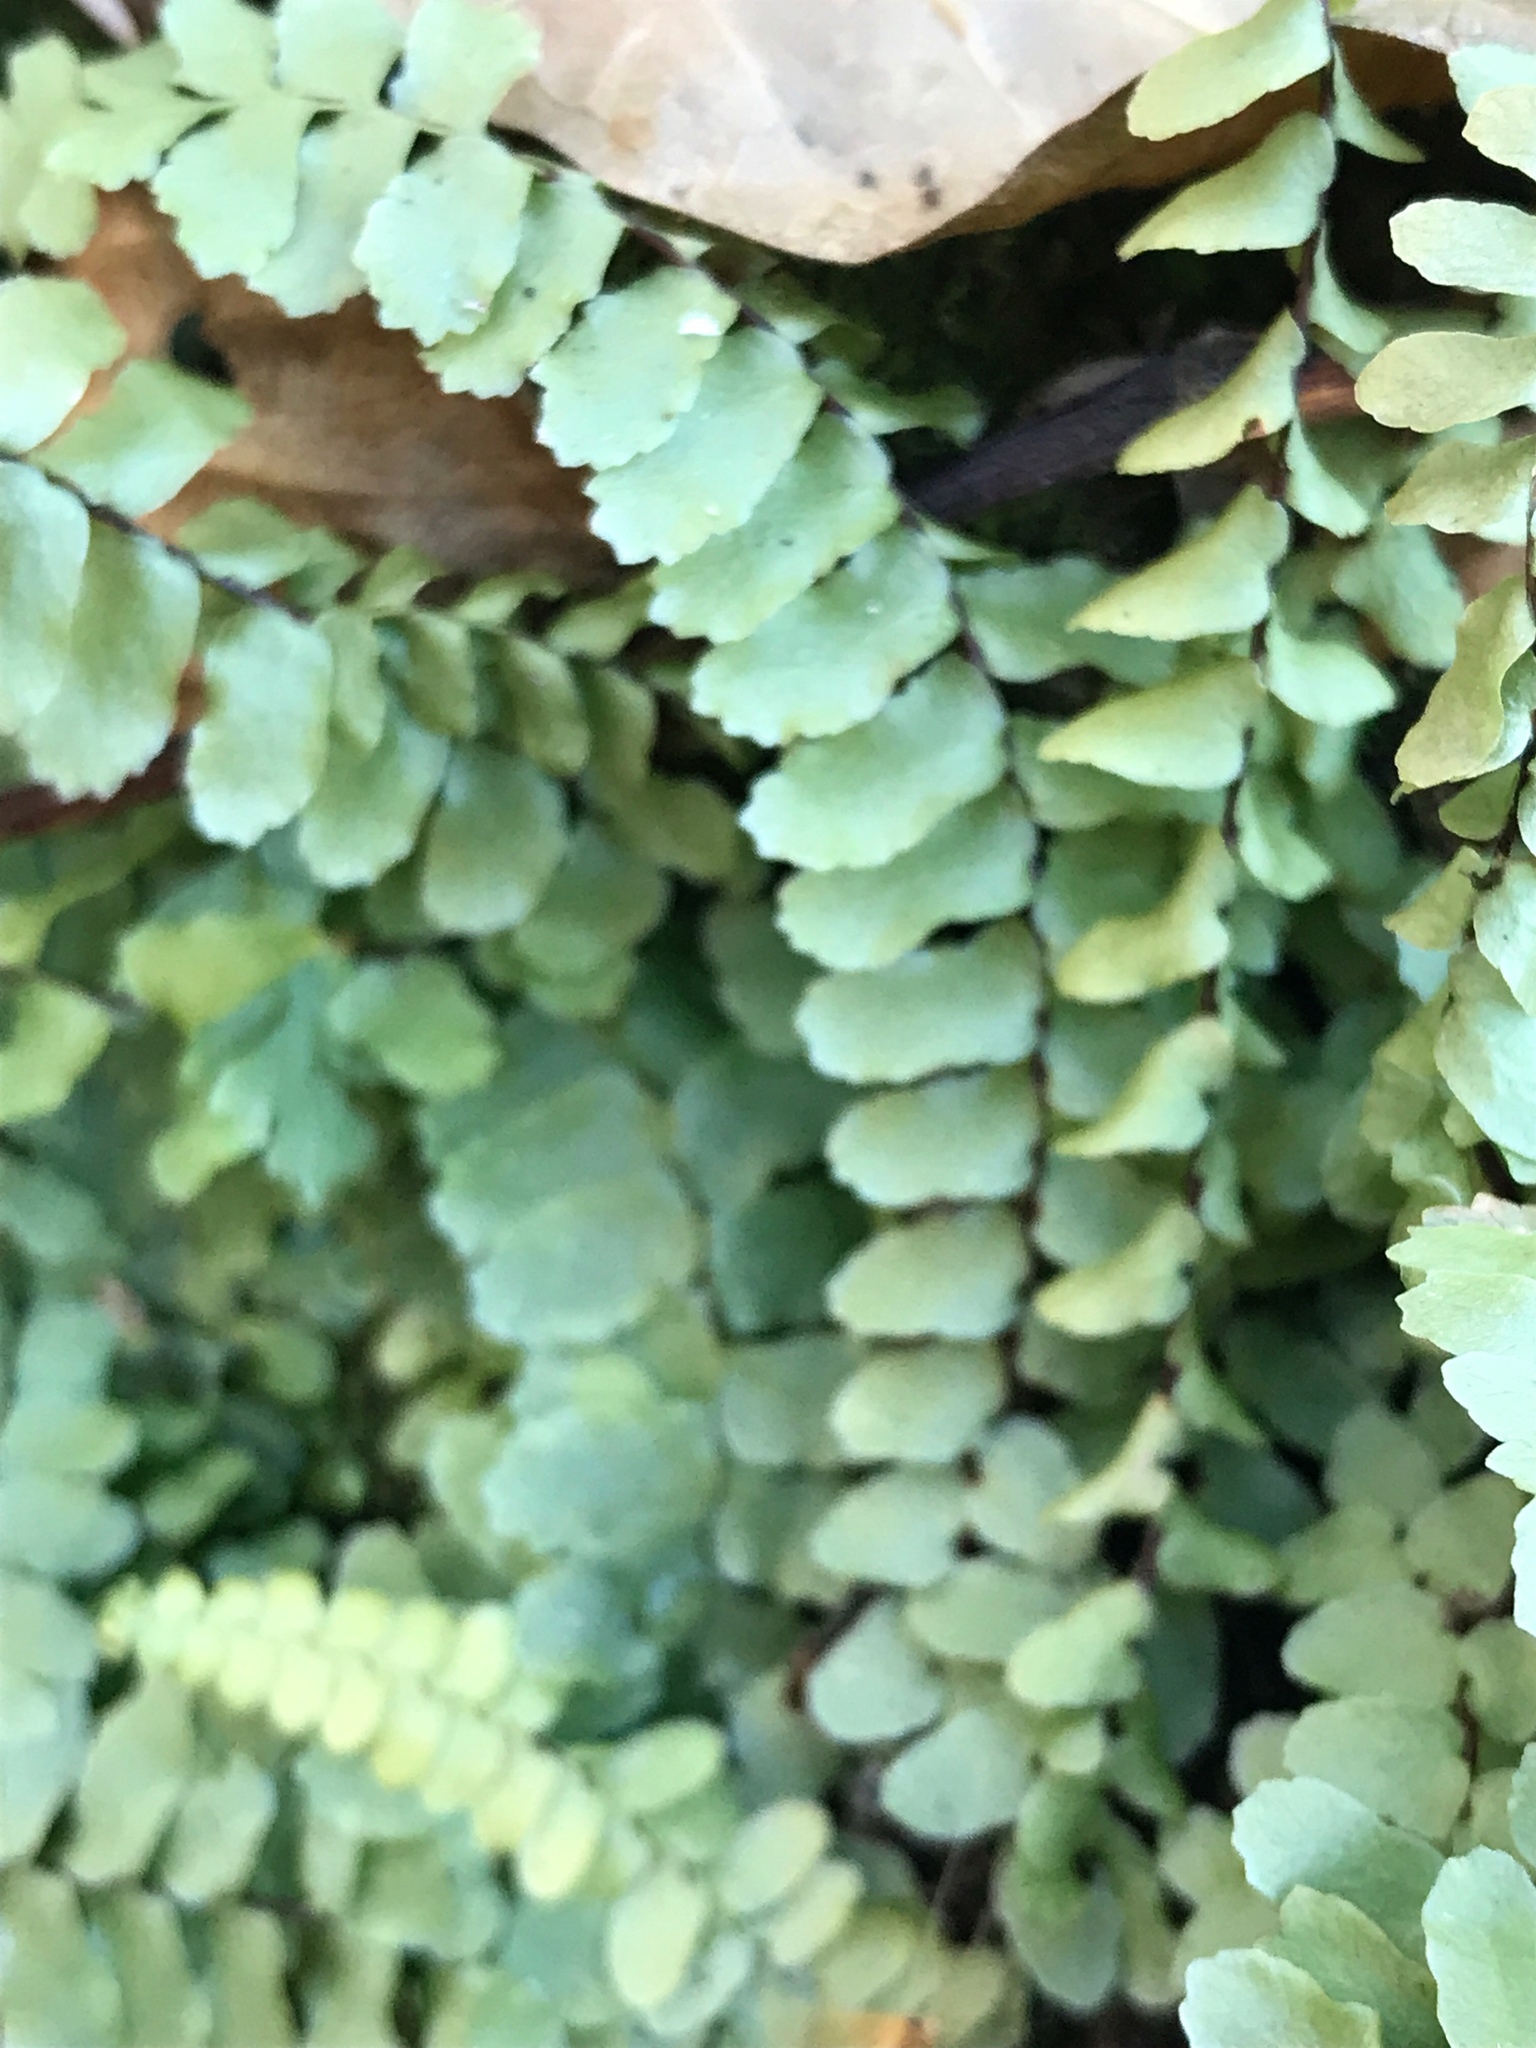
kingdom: Plantae
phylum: Tracheophyta
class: Polypodiopsida
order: Polypodiales
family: Aspleniaceae
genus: Asplenium
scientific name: Asplenium platyneuron
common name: Ebony spleenwort
